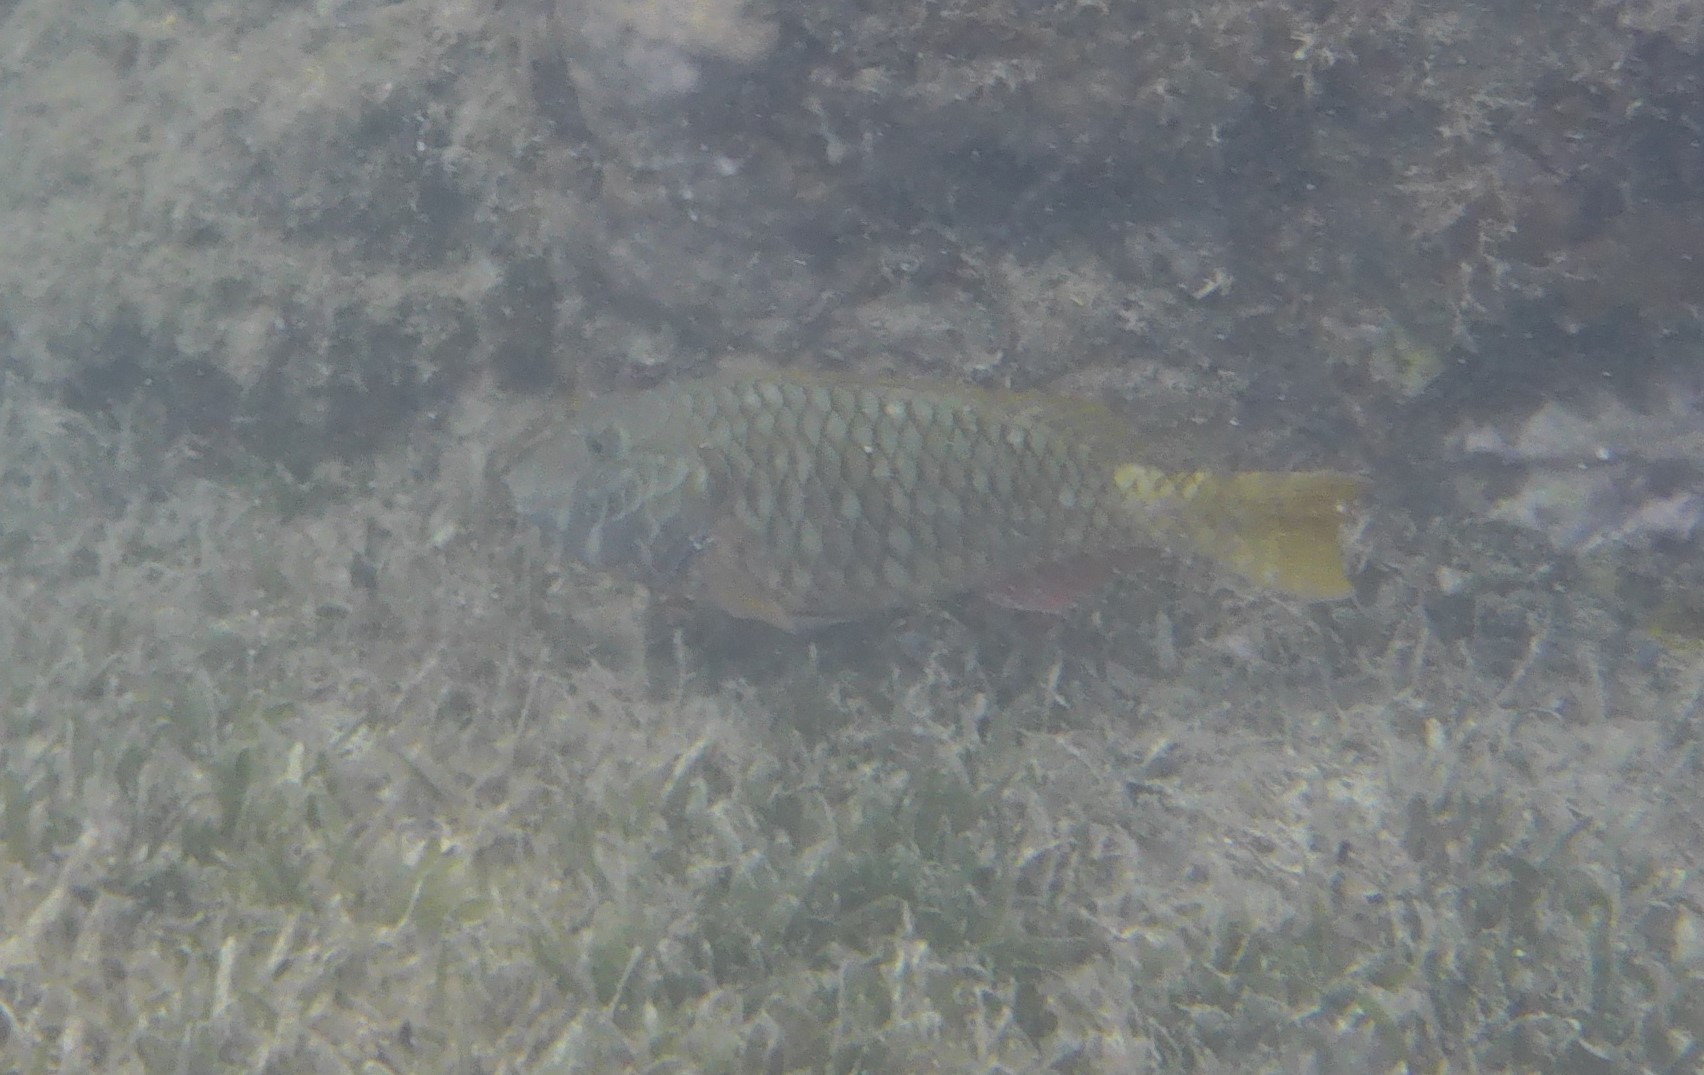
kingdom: Animalia
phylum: Chordata
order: Perciformes
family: Scaridae
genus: Sparisoma
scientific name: Sparisoma rubripinne
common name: Redfin parrotfish
